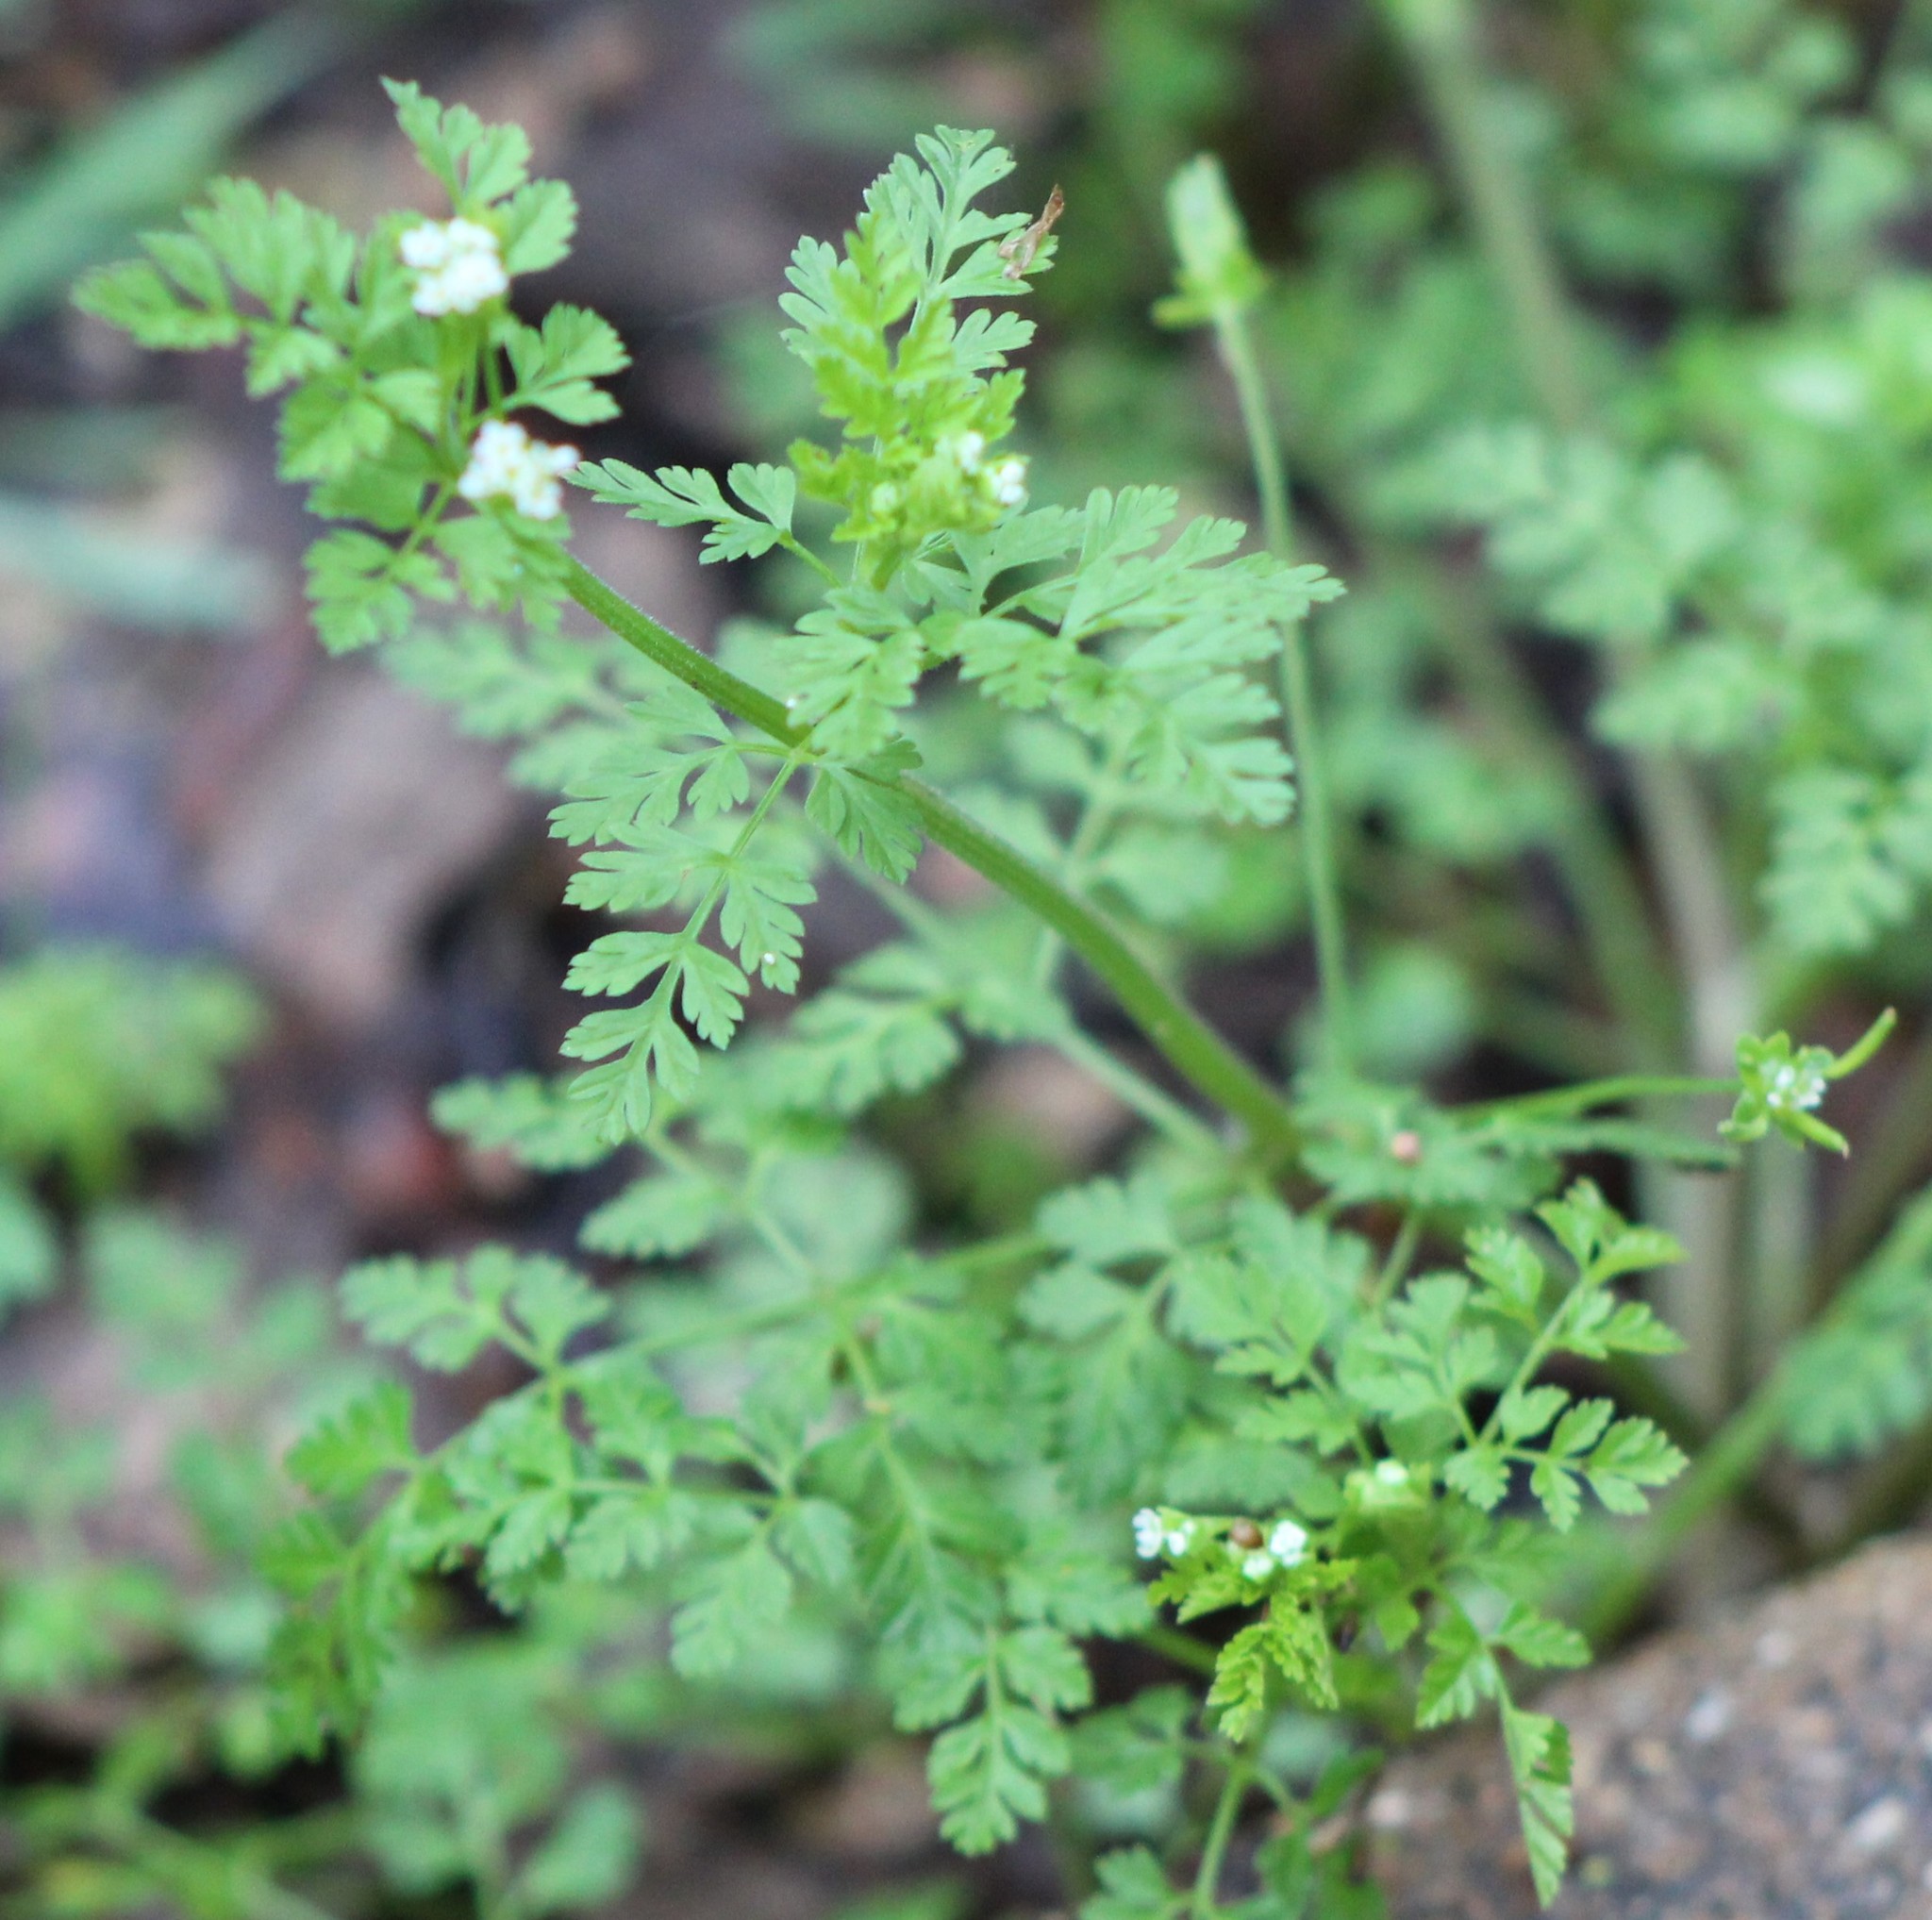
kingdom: Plantae
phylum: Tracheophyta
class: Magnoliopsida
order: Apiales
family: Apiaceae
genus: Chaerophyllum
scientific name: Chaerophyllum tainturieri
